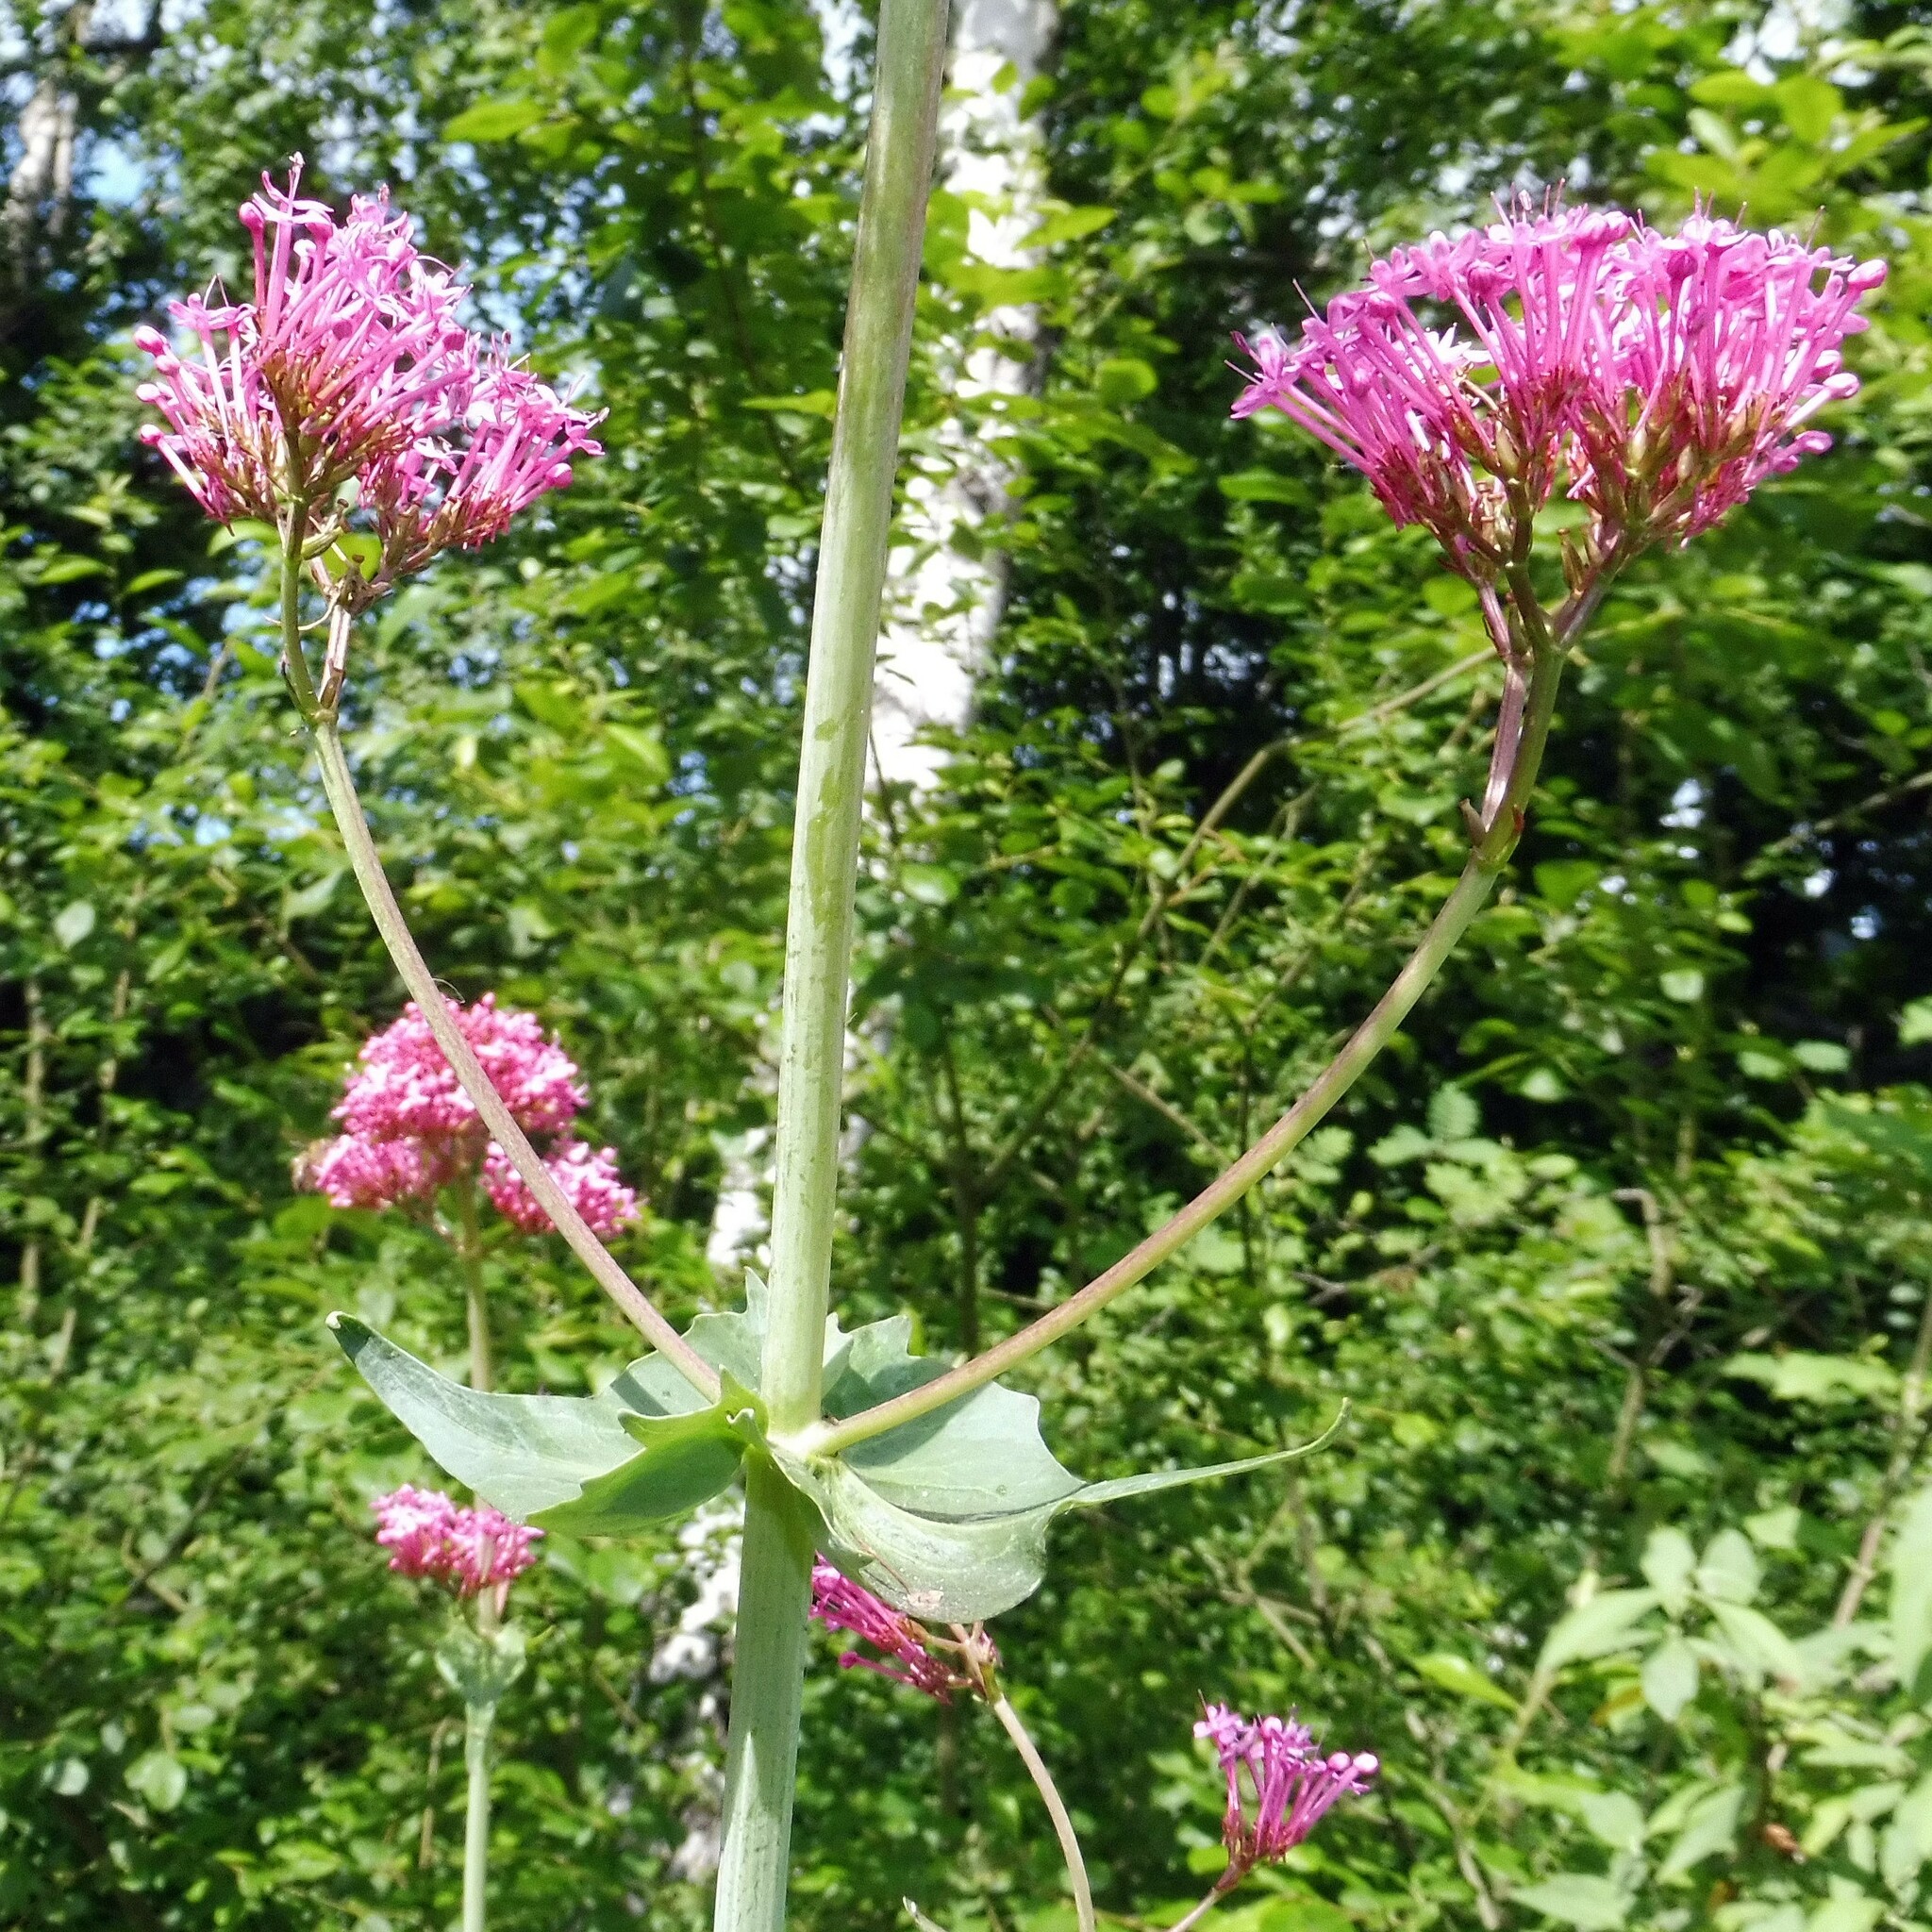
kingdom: Plantae
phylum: Tracheophyta
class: Magnoliopsida
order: Dipsacales
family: Caprifoliaceae
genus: Centranthus
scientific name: Centranthus ruber
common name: Red valerian
